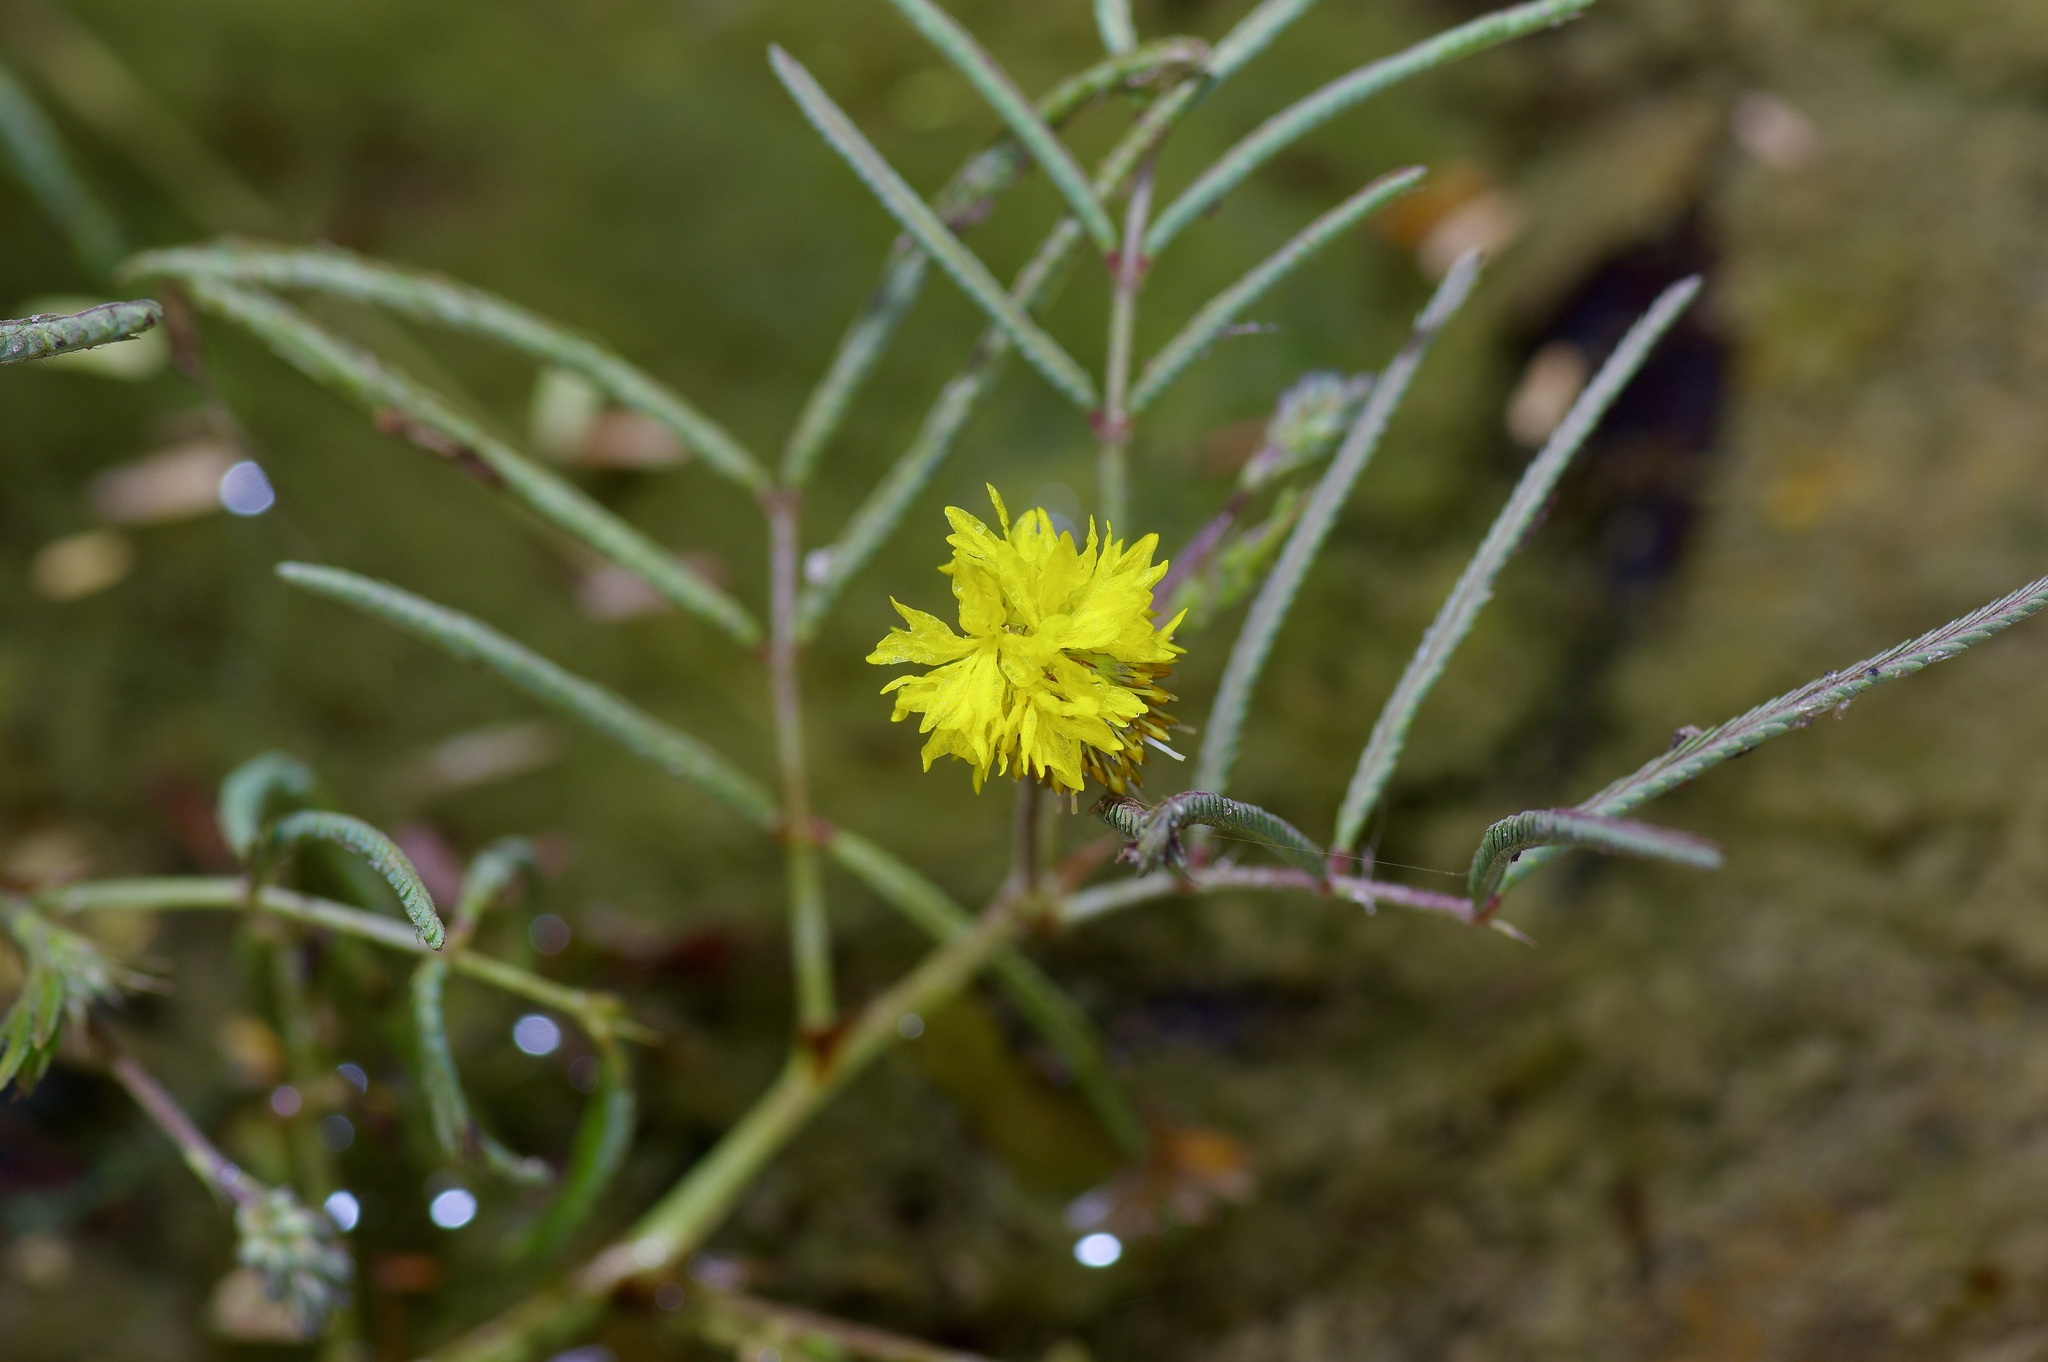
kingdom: Plantae
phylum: Tracheophyta
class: Magnoliopsida
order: Fabales
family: Fabaceae
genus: Neptunia
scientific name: Neptunia pubescens
